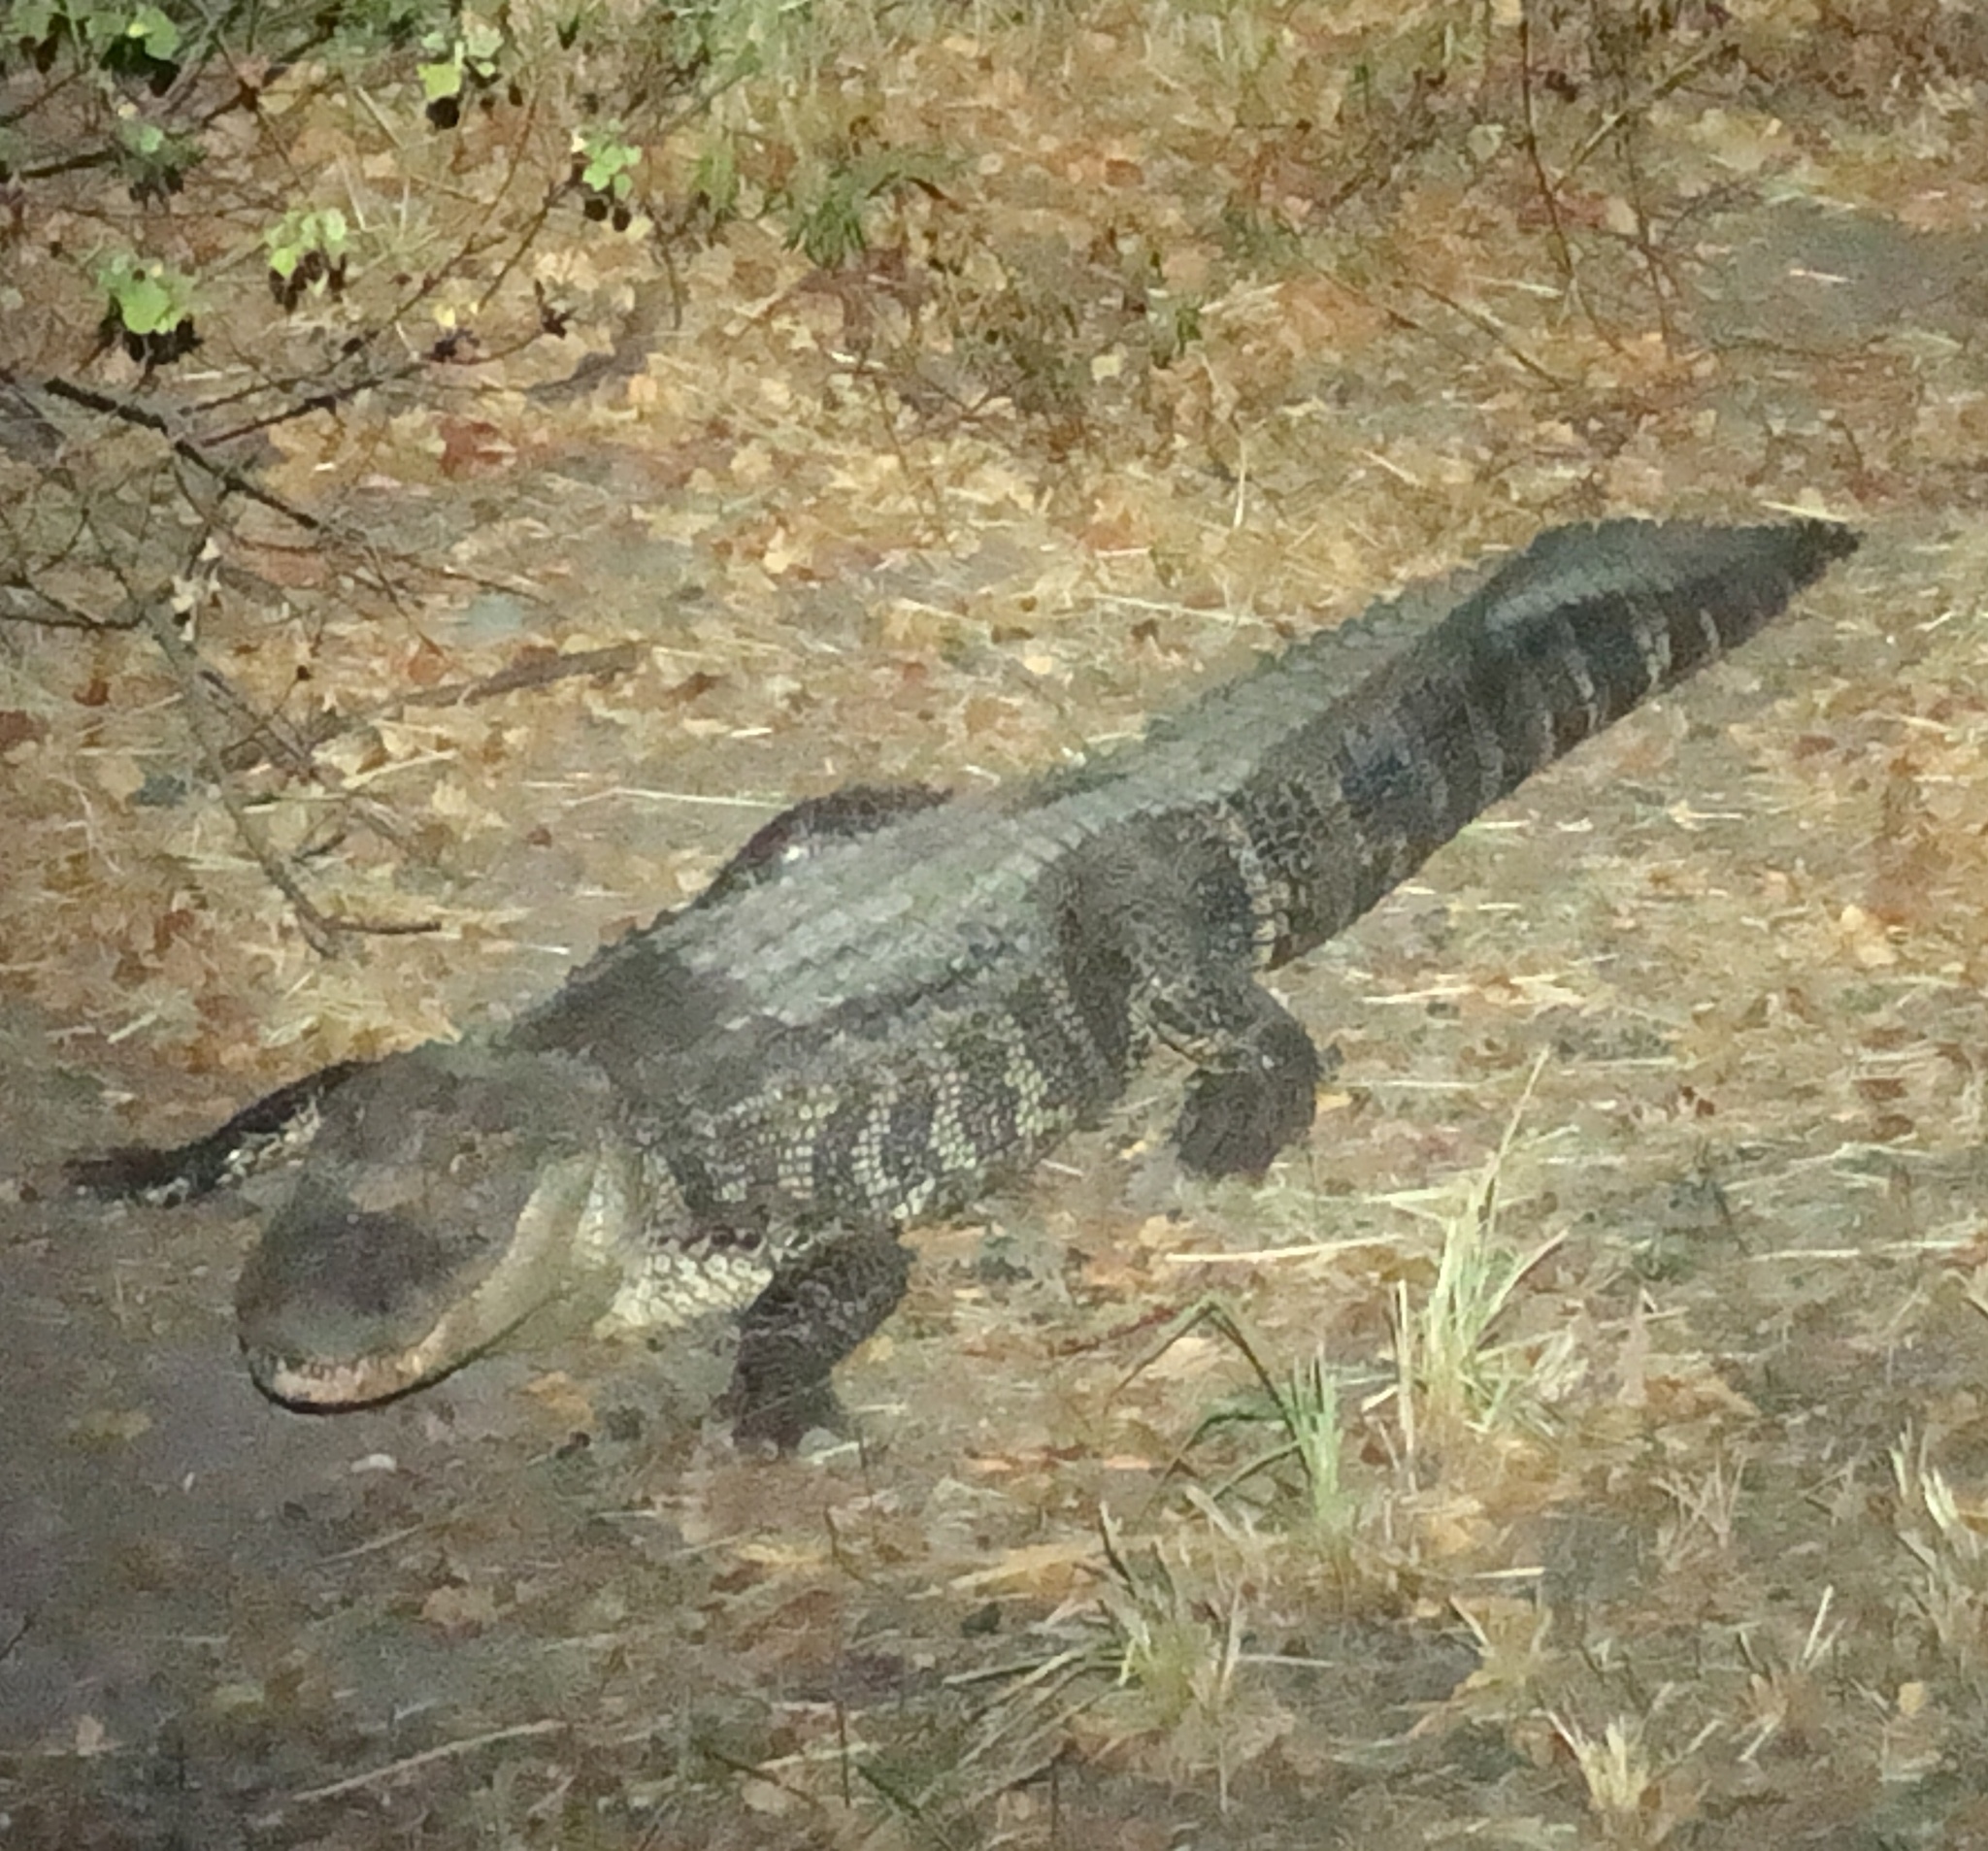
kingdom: Animalia
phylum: Chordata
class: Crocodylia
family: Alligatoridae
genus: Alligator
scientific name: Alligator mississippiensis
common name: American alligator
